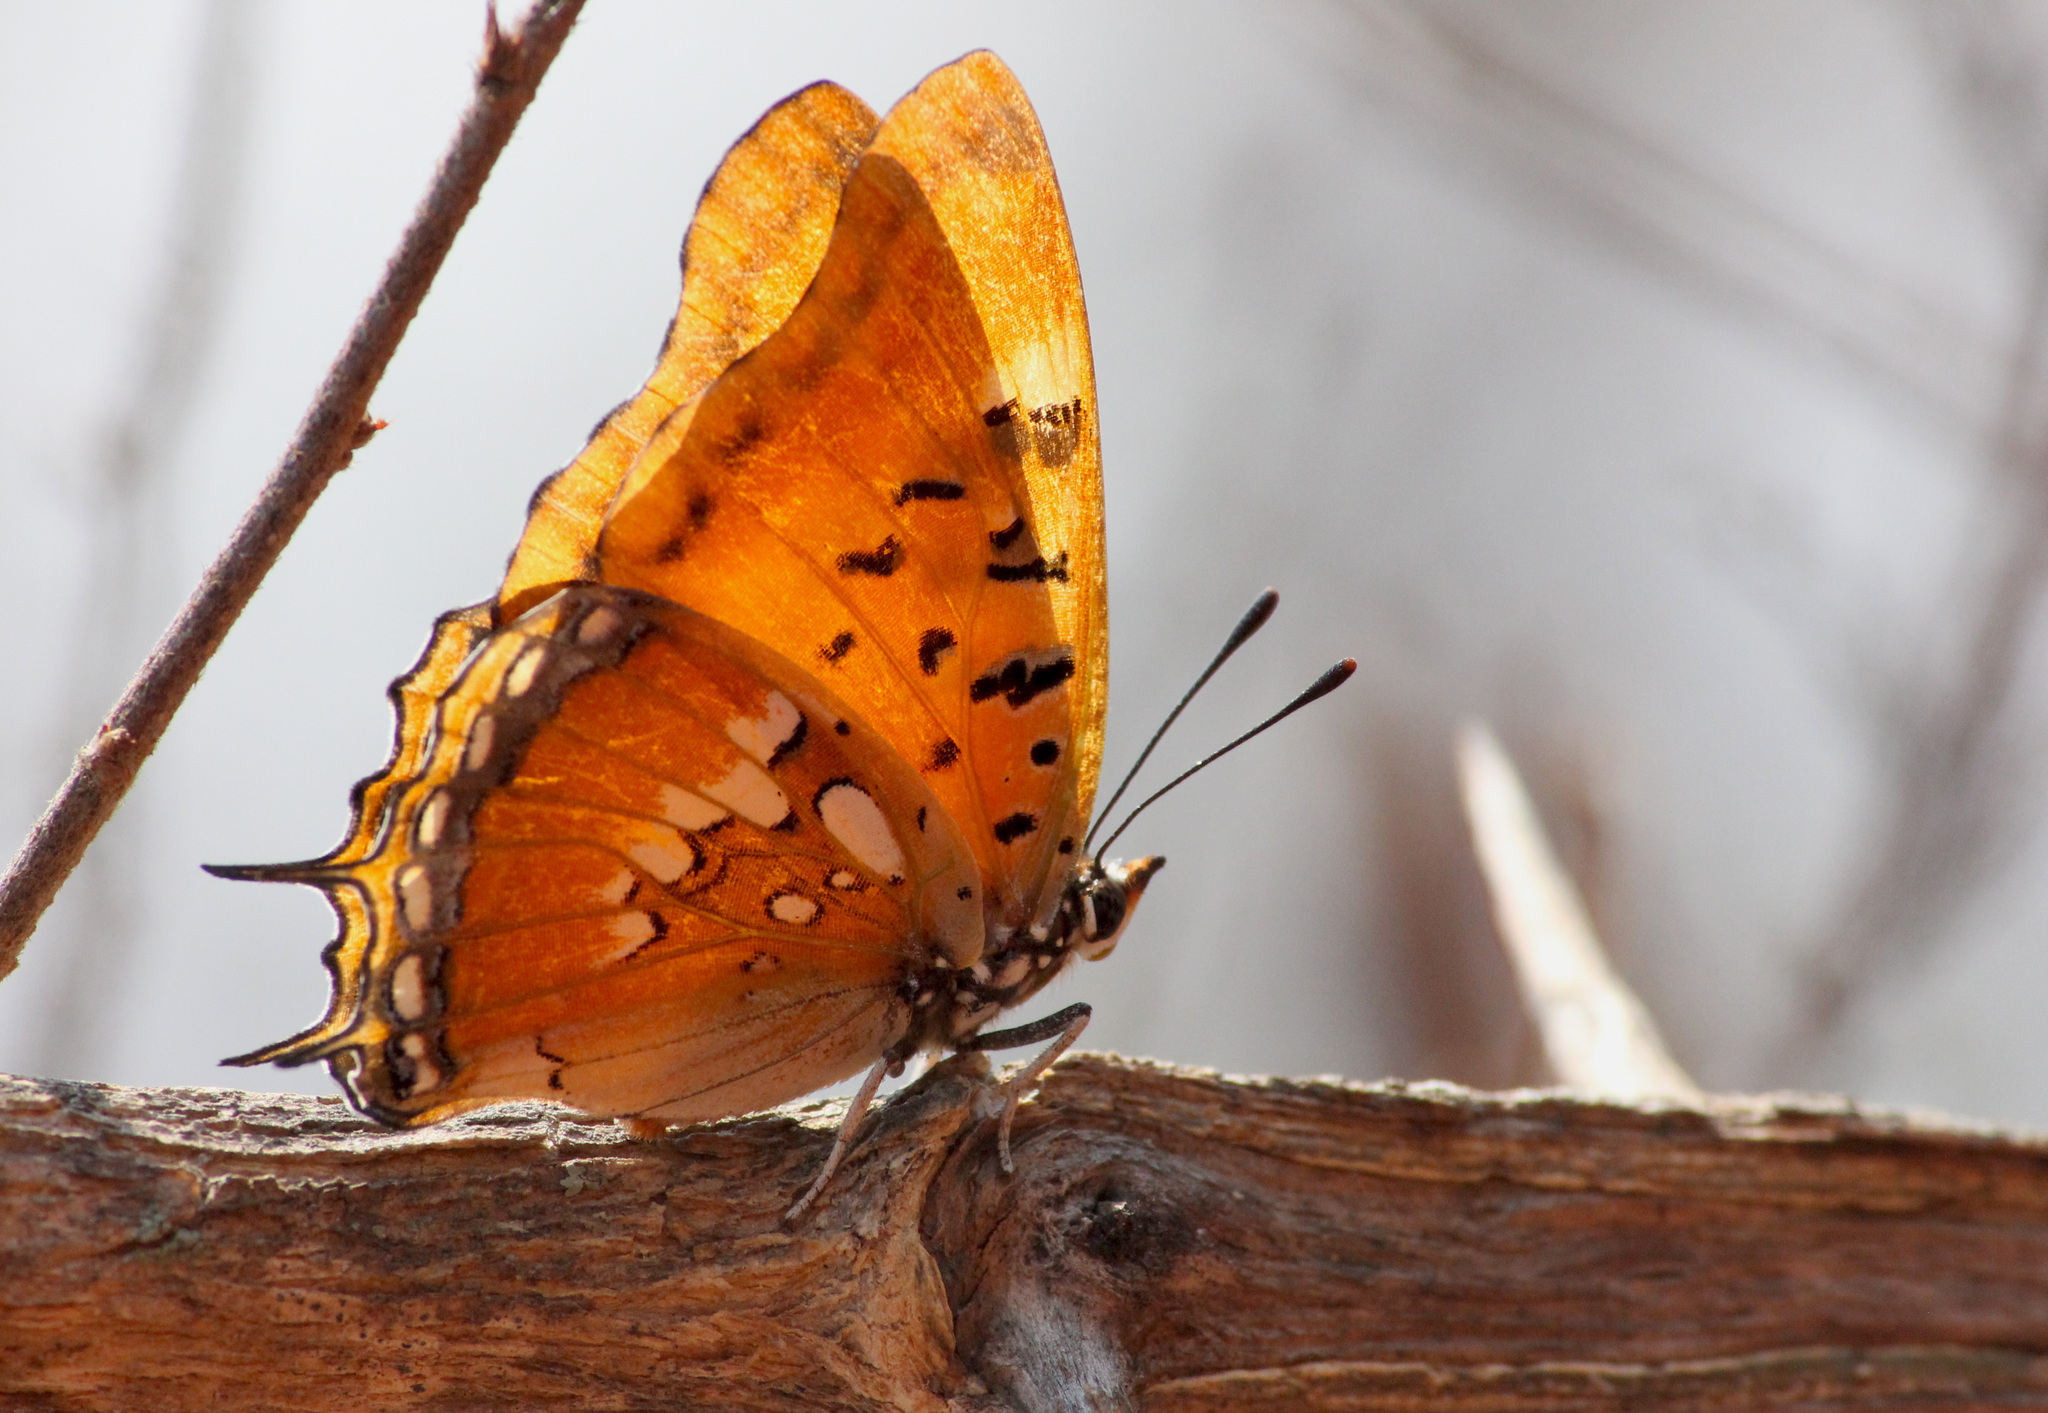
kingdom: Animalia
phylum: Arthropoda
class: Insecta
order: Lepidoptera
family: Nymphalidae
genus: Charaxes
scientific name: Charaxes jahlusa
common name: Pearl-spotted charaxes
